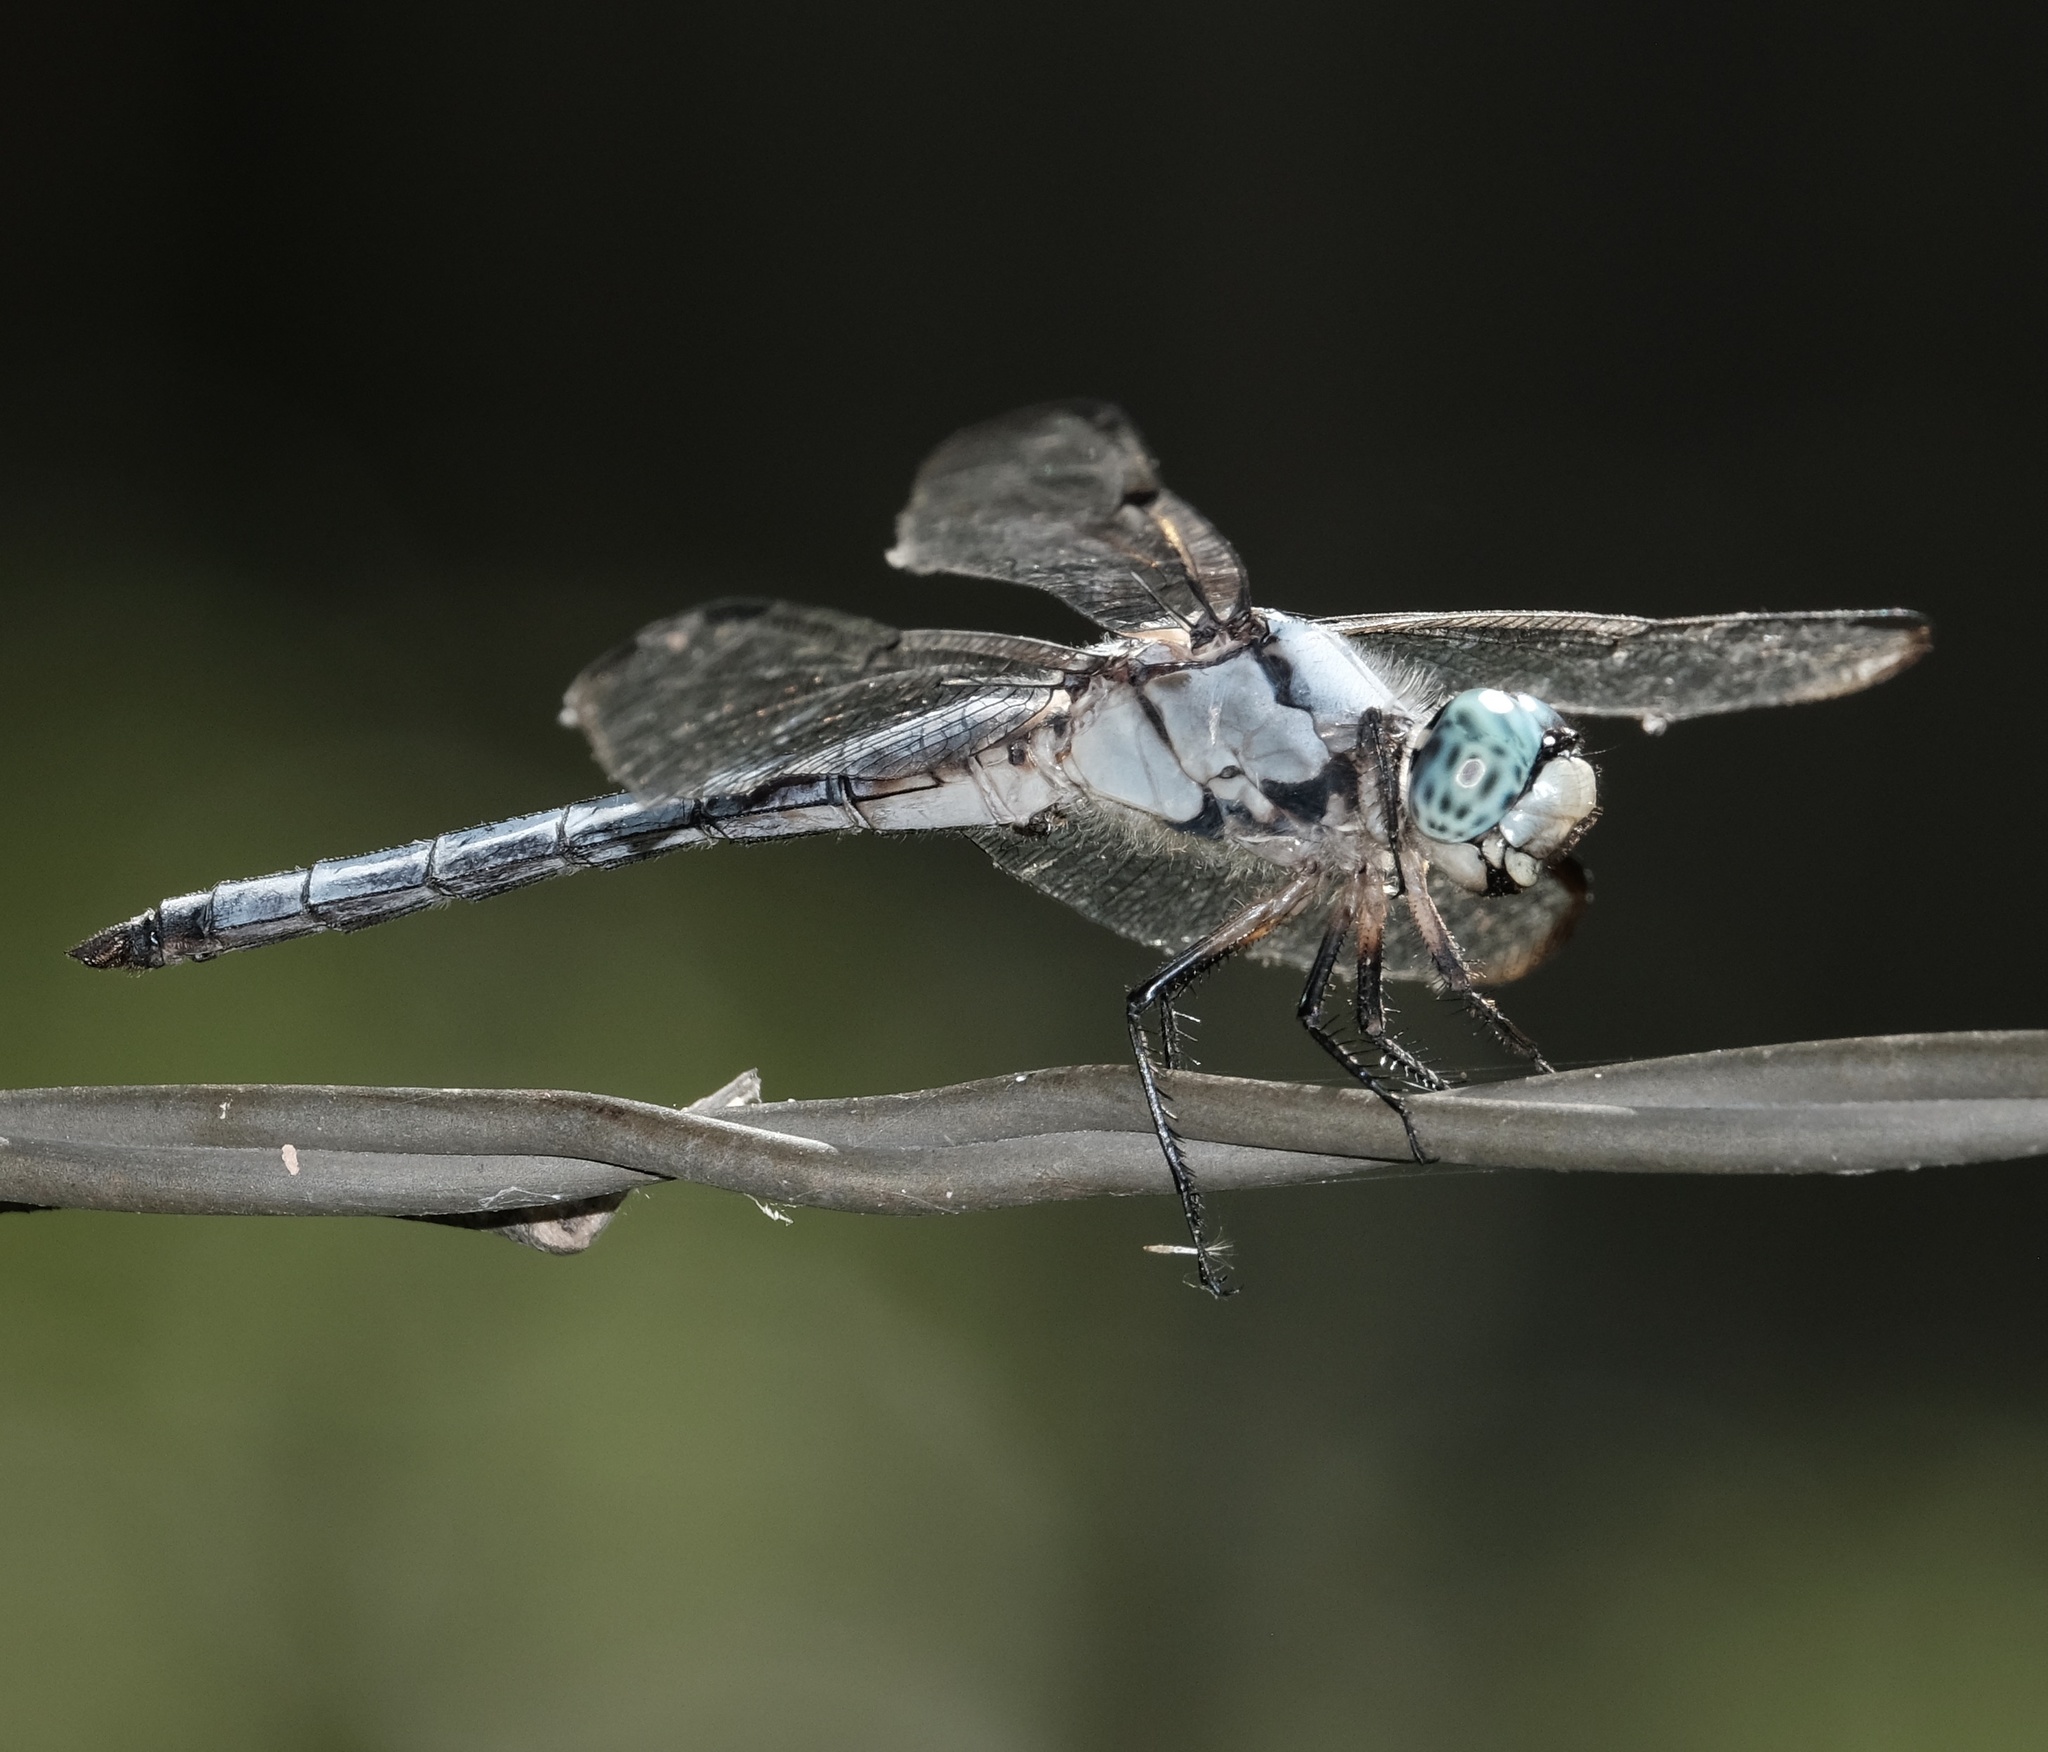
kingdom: Animalia
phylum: Arthropoda
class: Insecta
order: Odonata
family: Libellulidae
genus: Libellula
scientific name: Libellula vibrans
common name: Great blue skimmer
